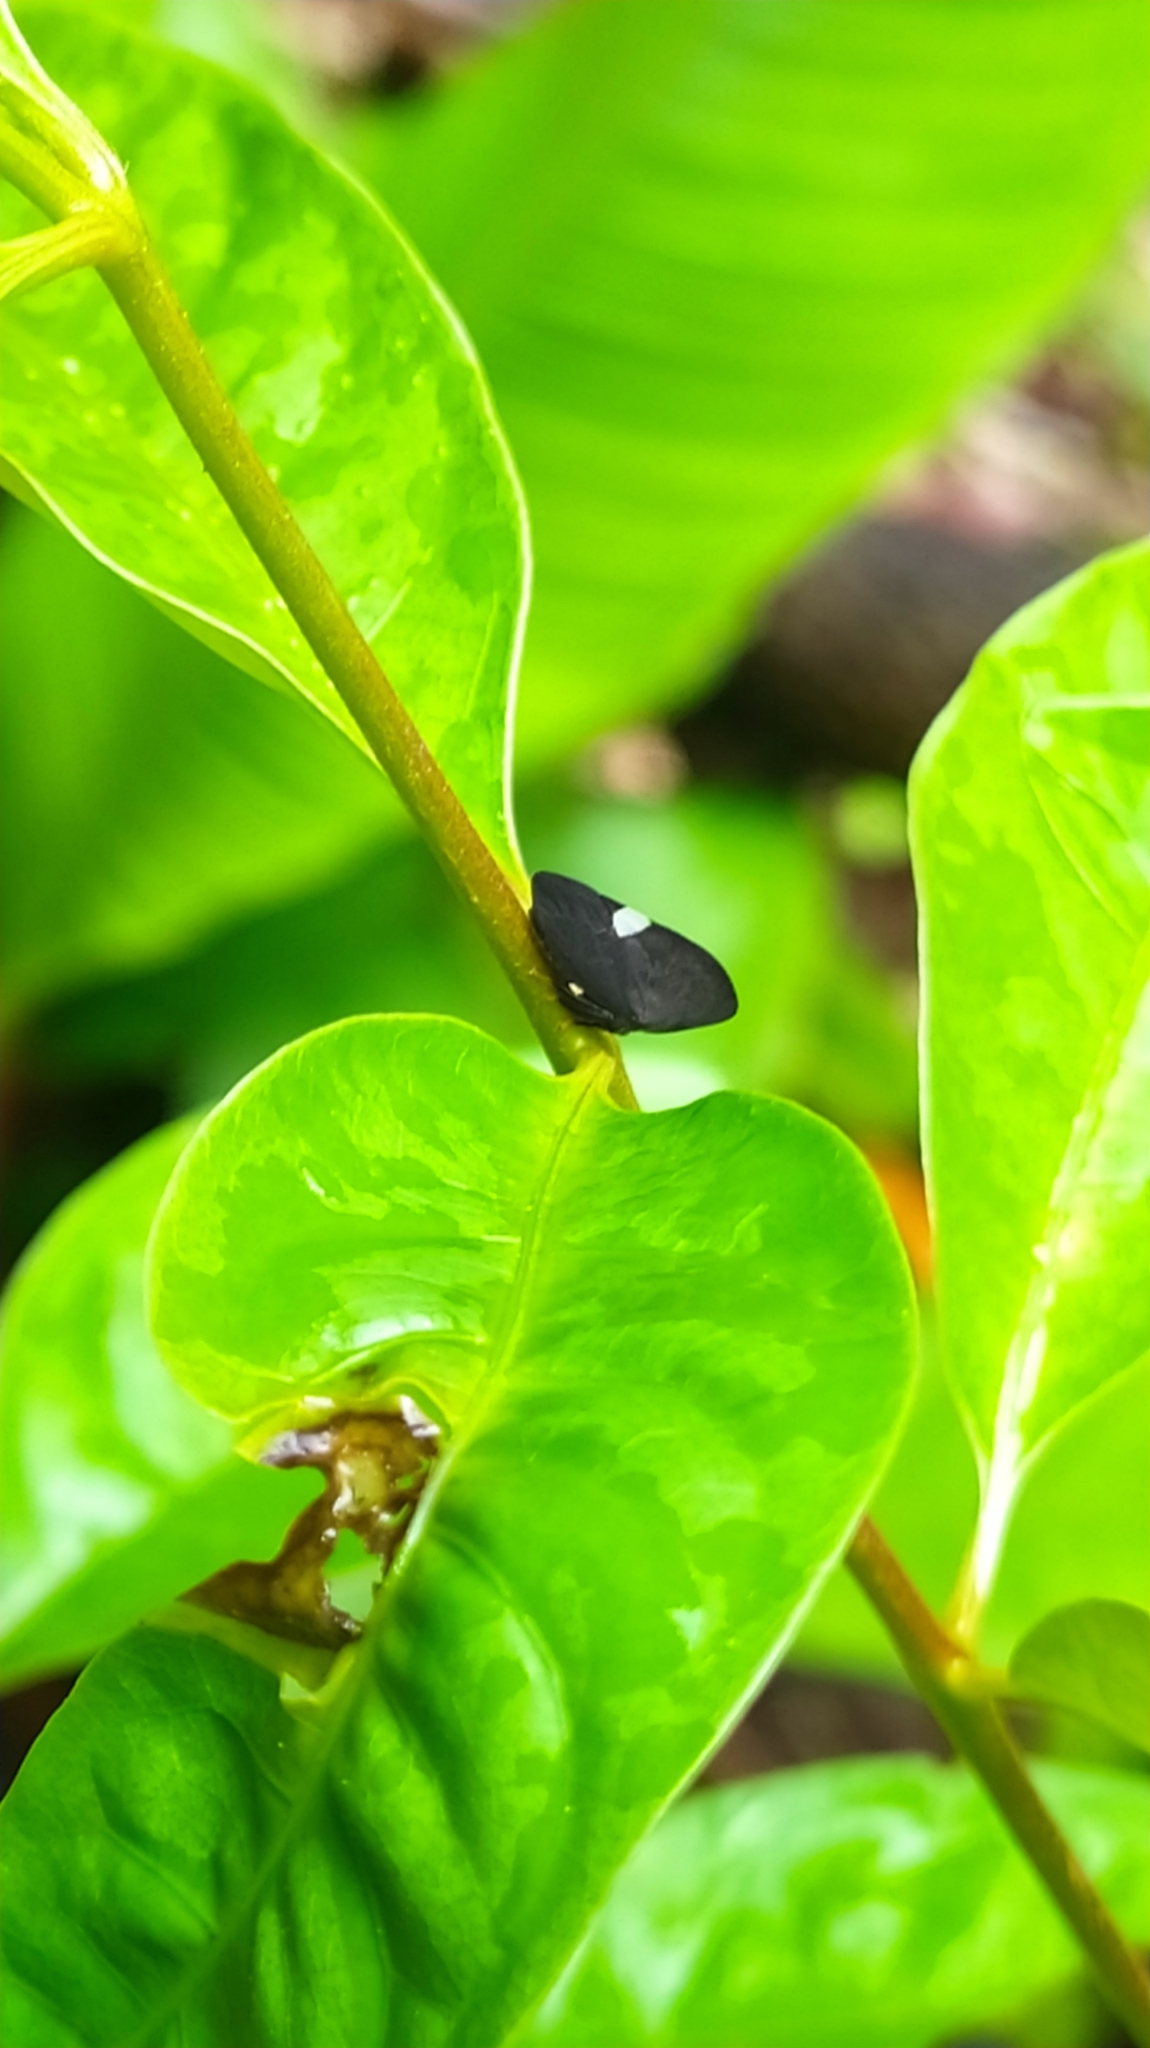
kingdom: Animalia
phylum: Arthropoda
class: Insecta
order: Hemiptera
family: Membracidae
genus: Membracis
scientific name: Membracis nigra
